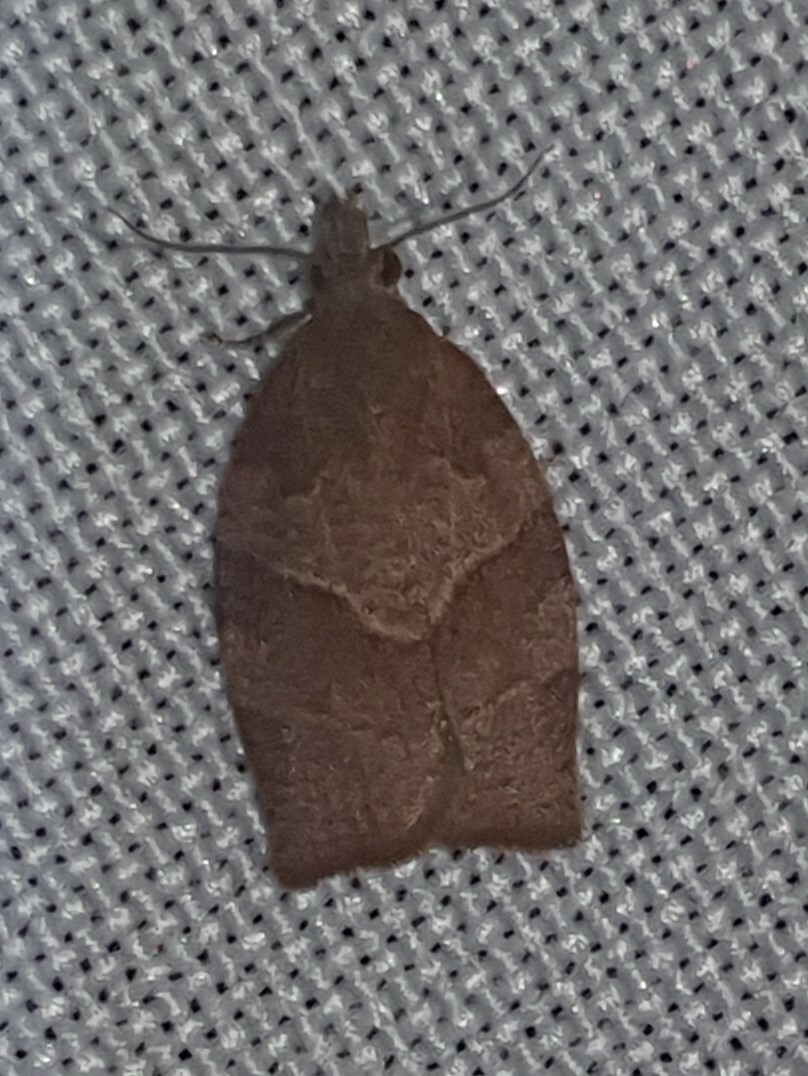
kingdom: Animalia
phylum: Arthropoda
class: Insecta
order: Lepidoptera
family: Tortricidae
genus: Pandemis
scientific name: Pandemis heparana
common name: Dark fruit-tree tortrix
